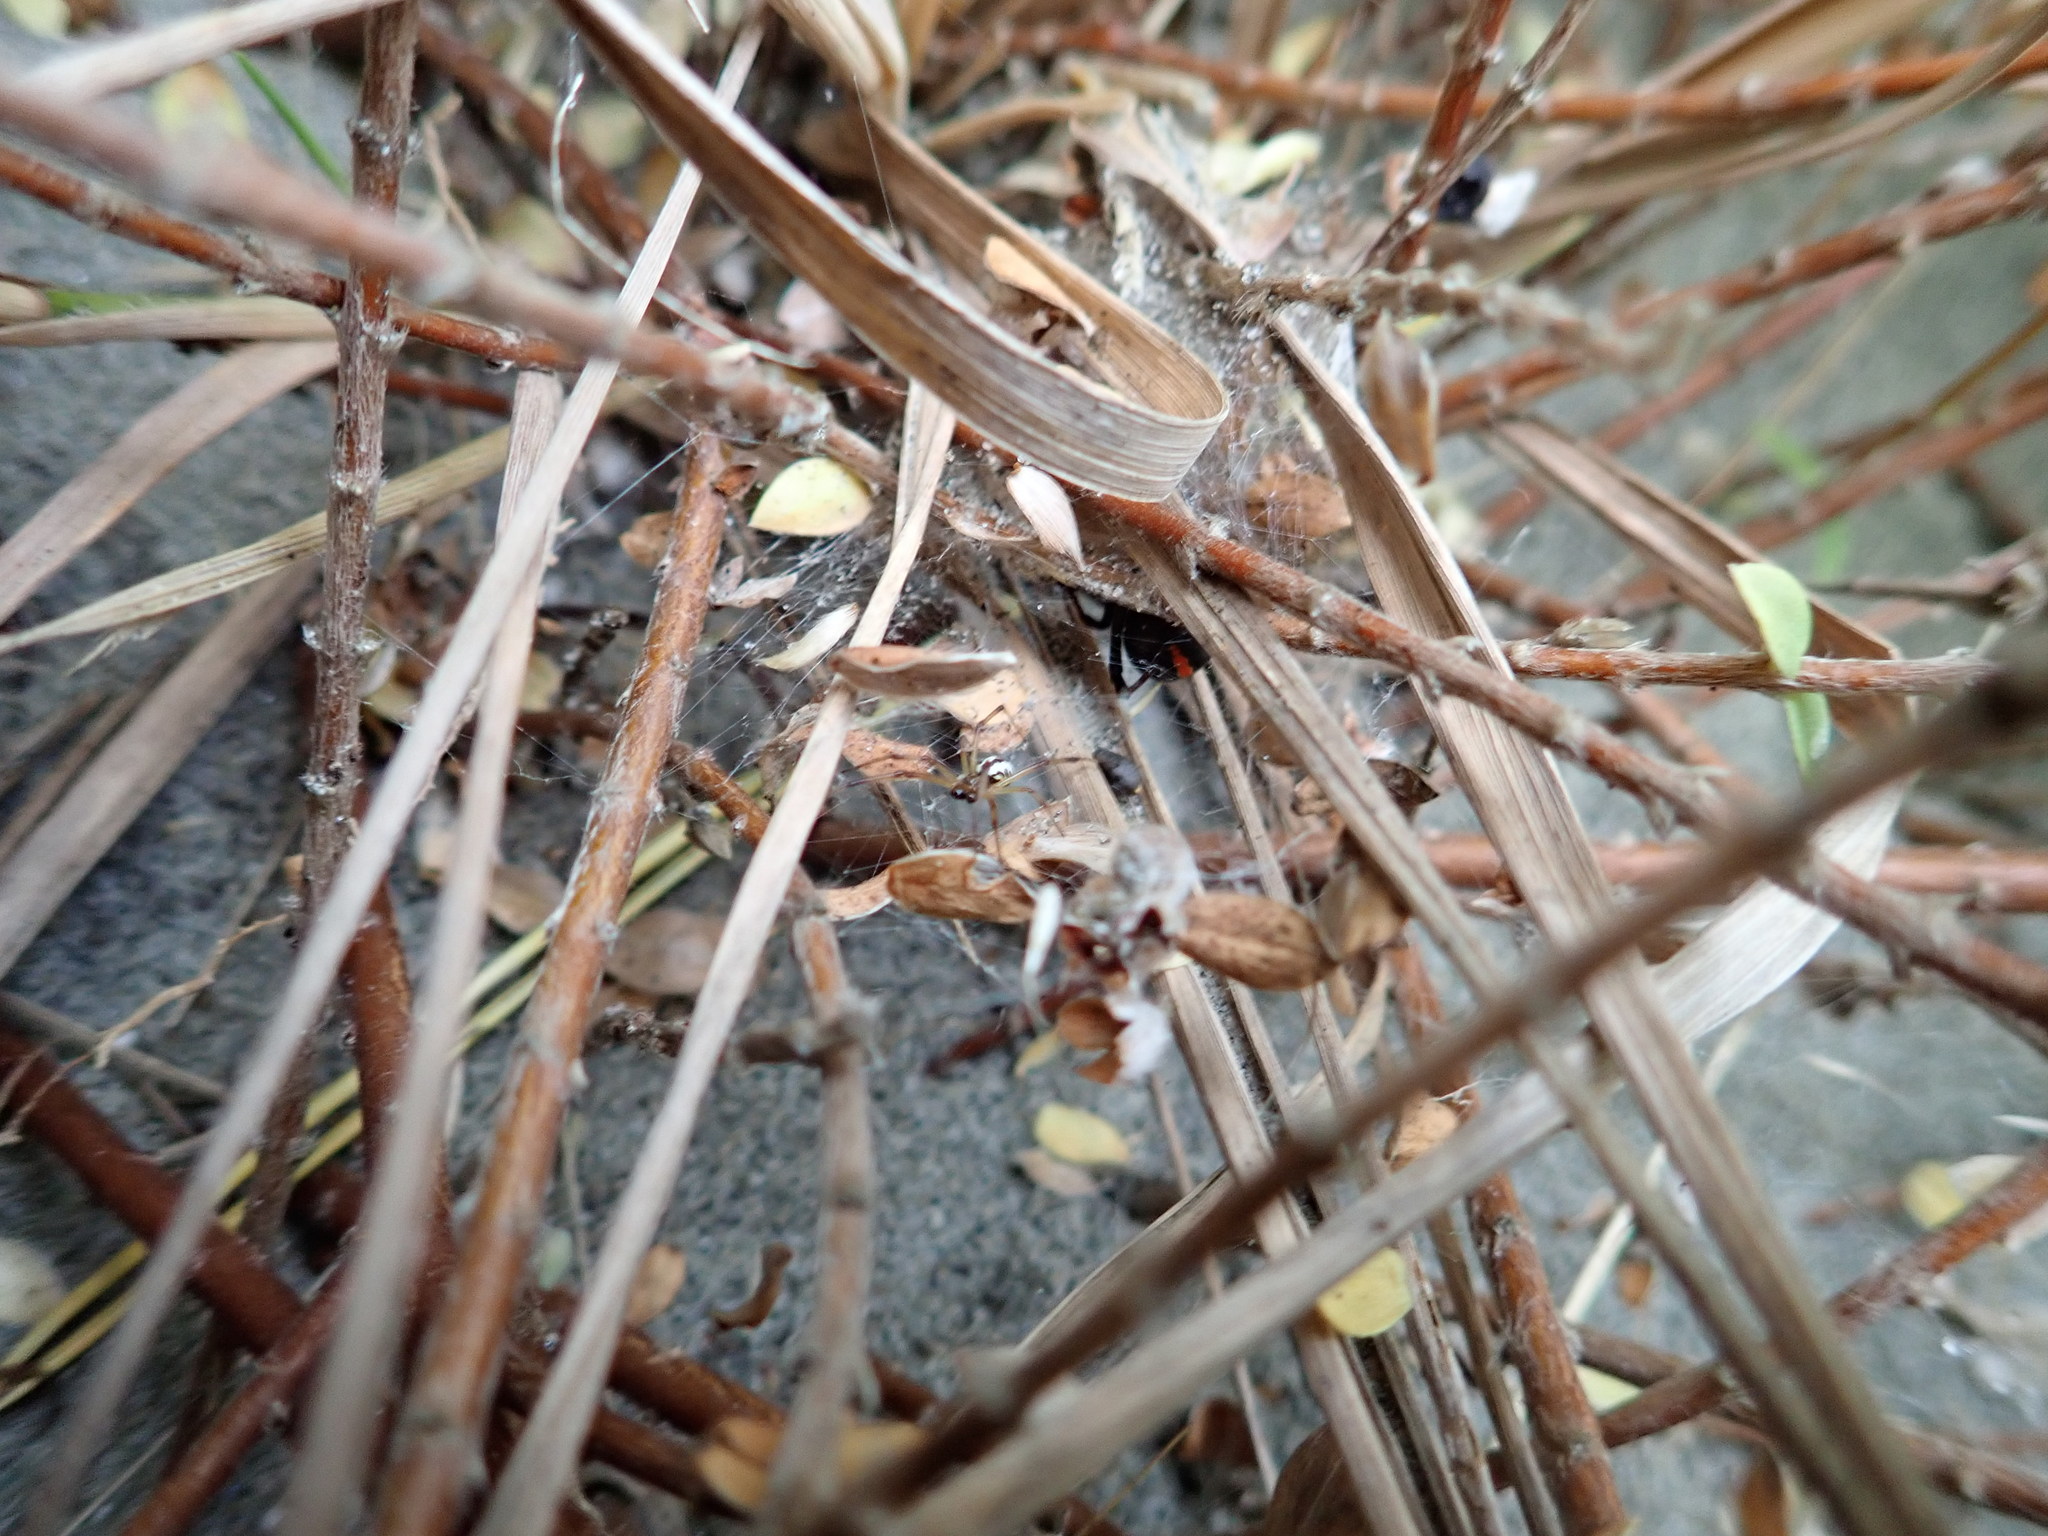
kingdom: Plantae
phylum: Tracheophyta
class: Magnoliopsida
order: Malvales
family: Thymelaeaceae
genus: Pimelea
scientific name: Pimelea villosa
